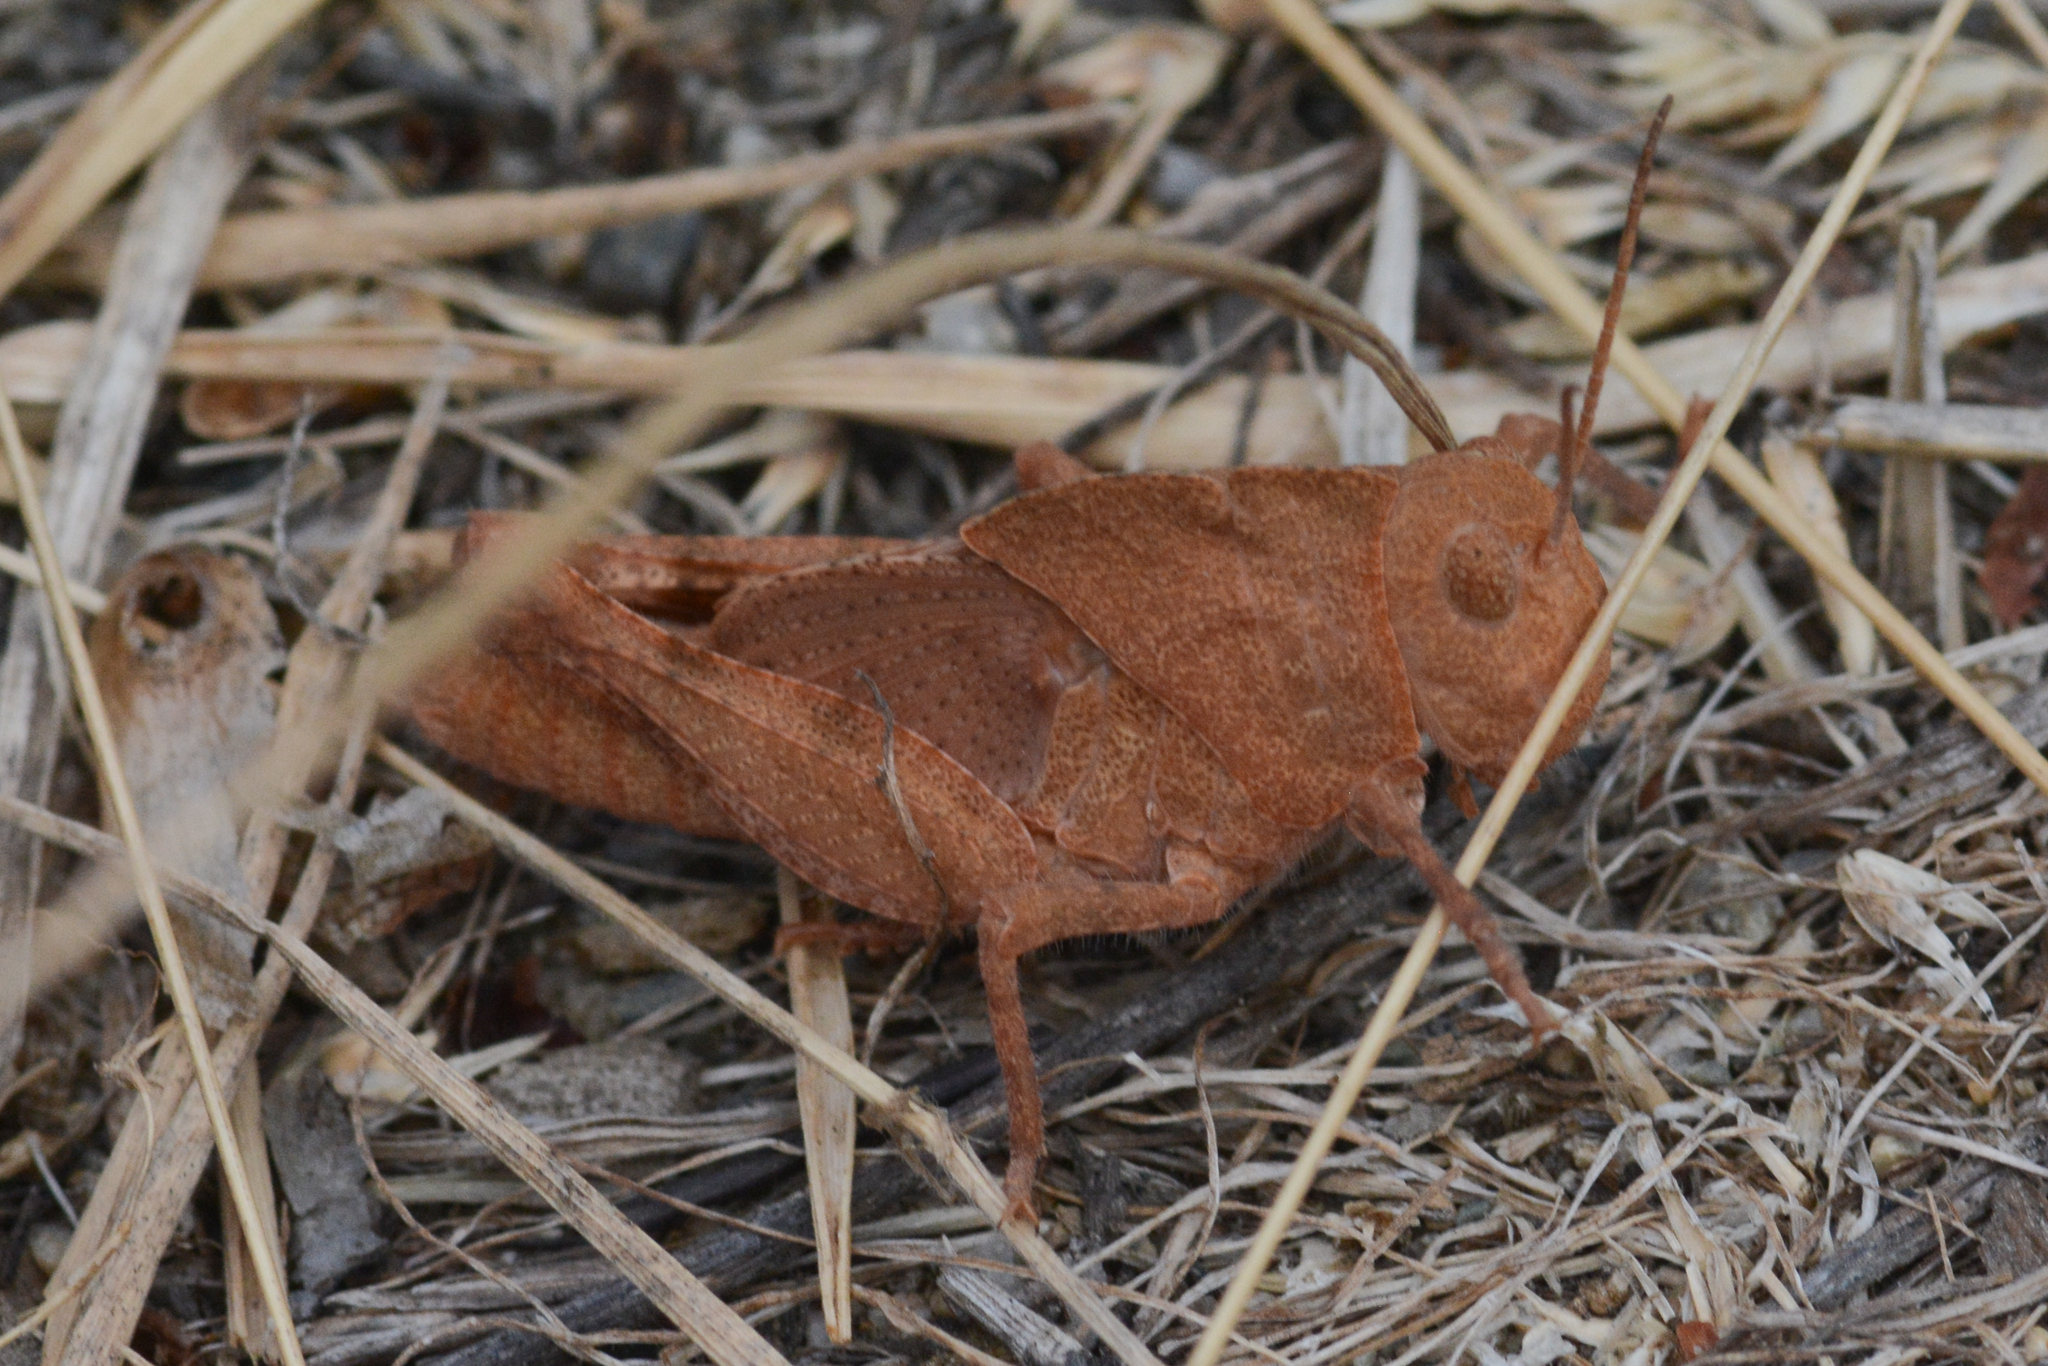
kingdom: Animalia
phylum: Arthropoda
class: Insecta
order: Orthoptera
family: Acrididae
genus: Dissosteira
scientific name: Dissosteira carolina
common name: Carolina grasshopper
